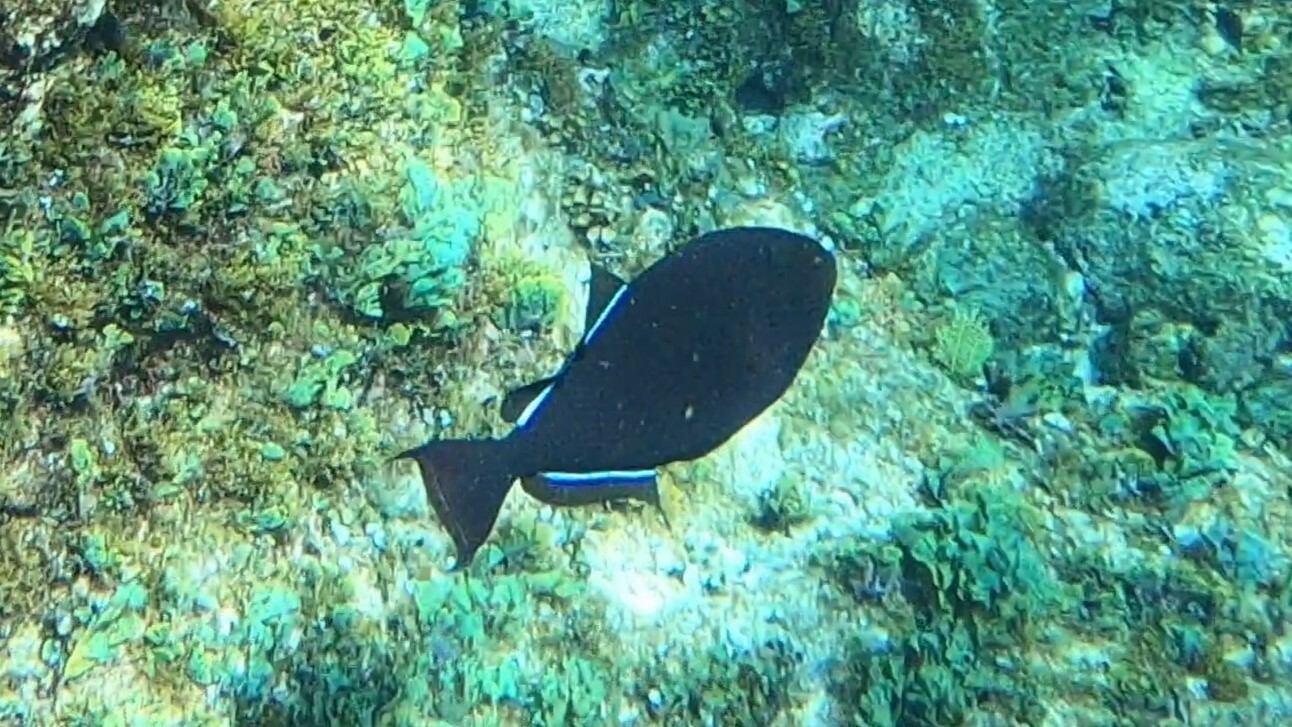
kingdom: Animalia
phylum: Chordata
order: Tetraodontiformes
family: Balistidae
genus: Melichthys
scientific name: Melichthys niger
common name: Black durgon
